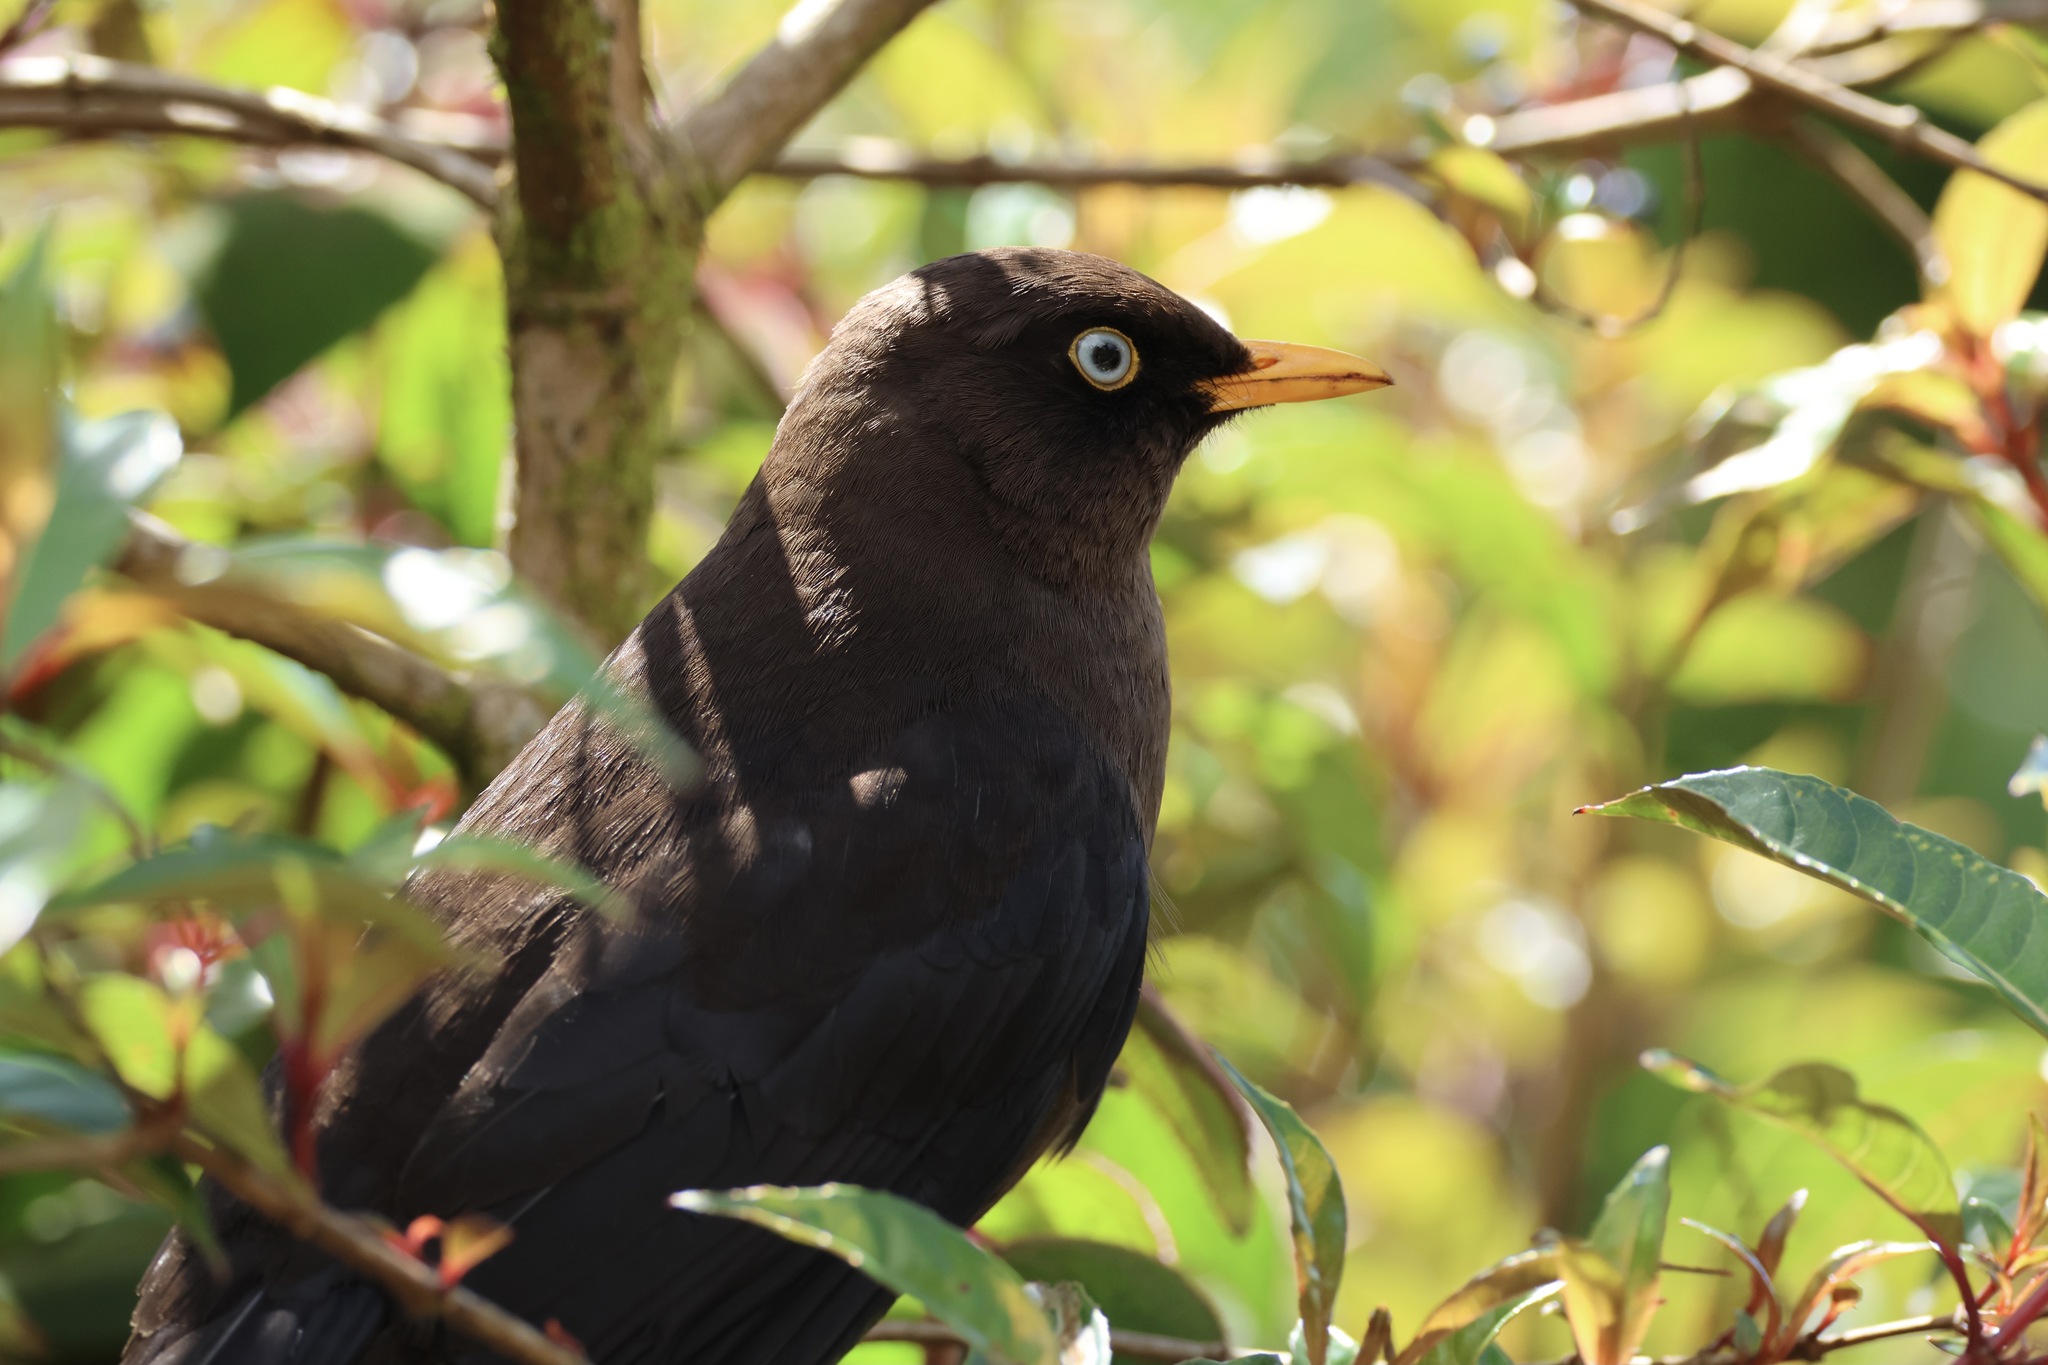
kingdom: Animalia
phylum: Chordata
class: Aves
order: Passeriformes
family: Turdidae
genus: Turdus
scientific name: Turdus nigrescens
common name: Sooty thrush
